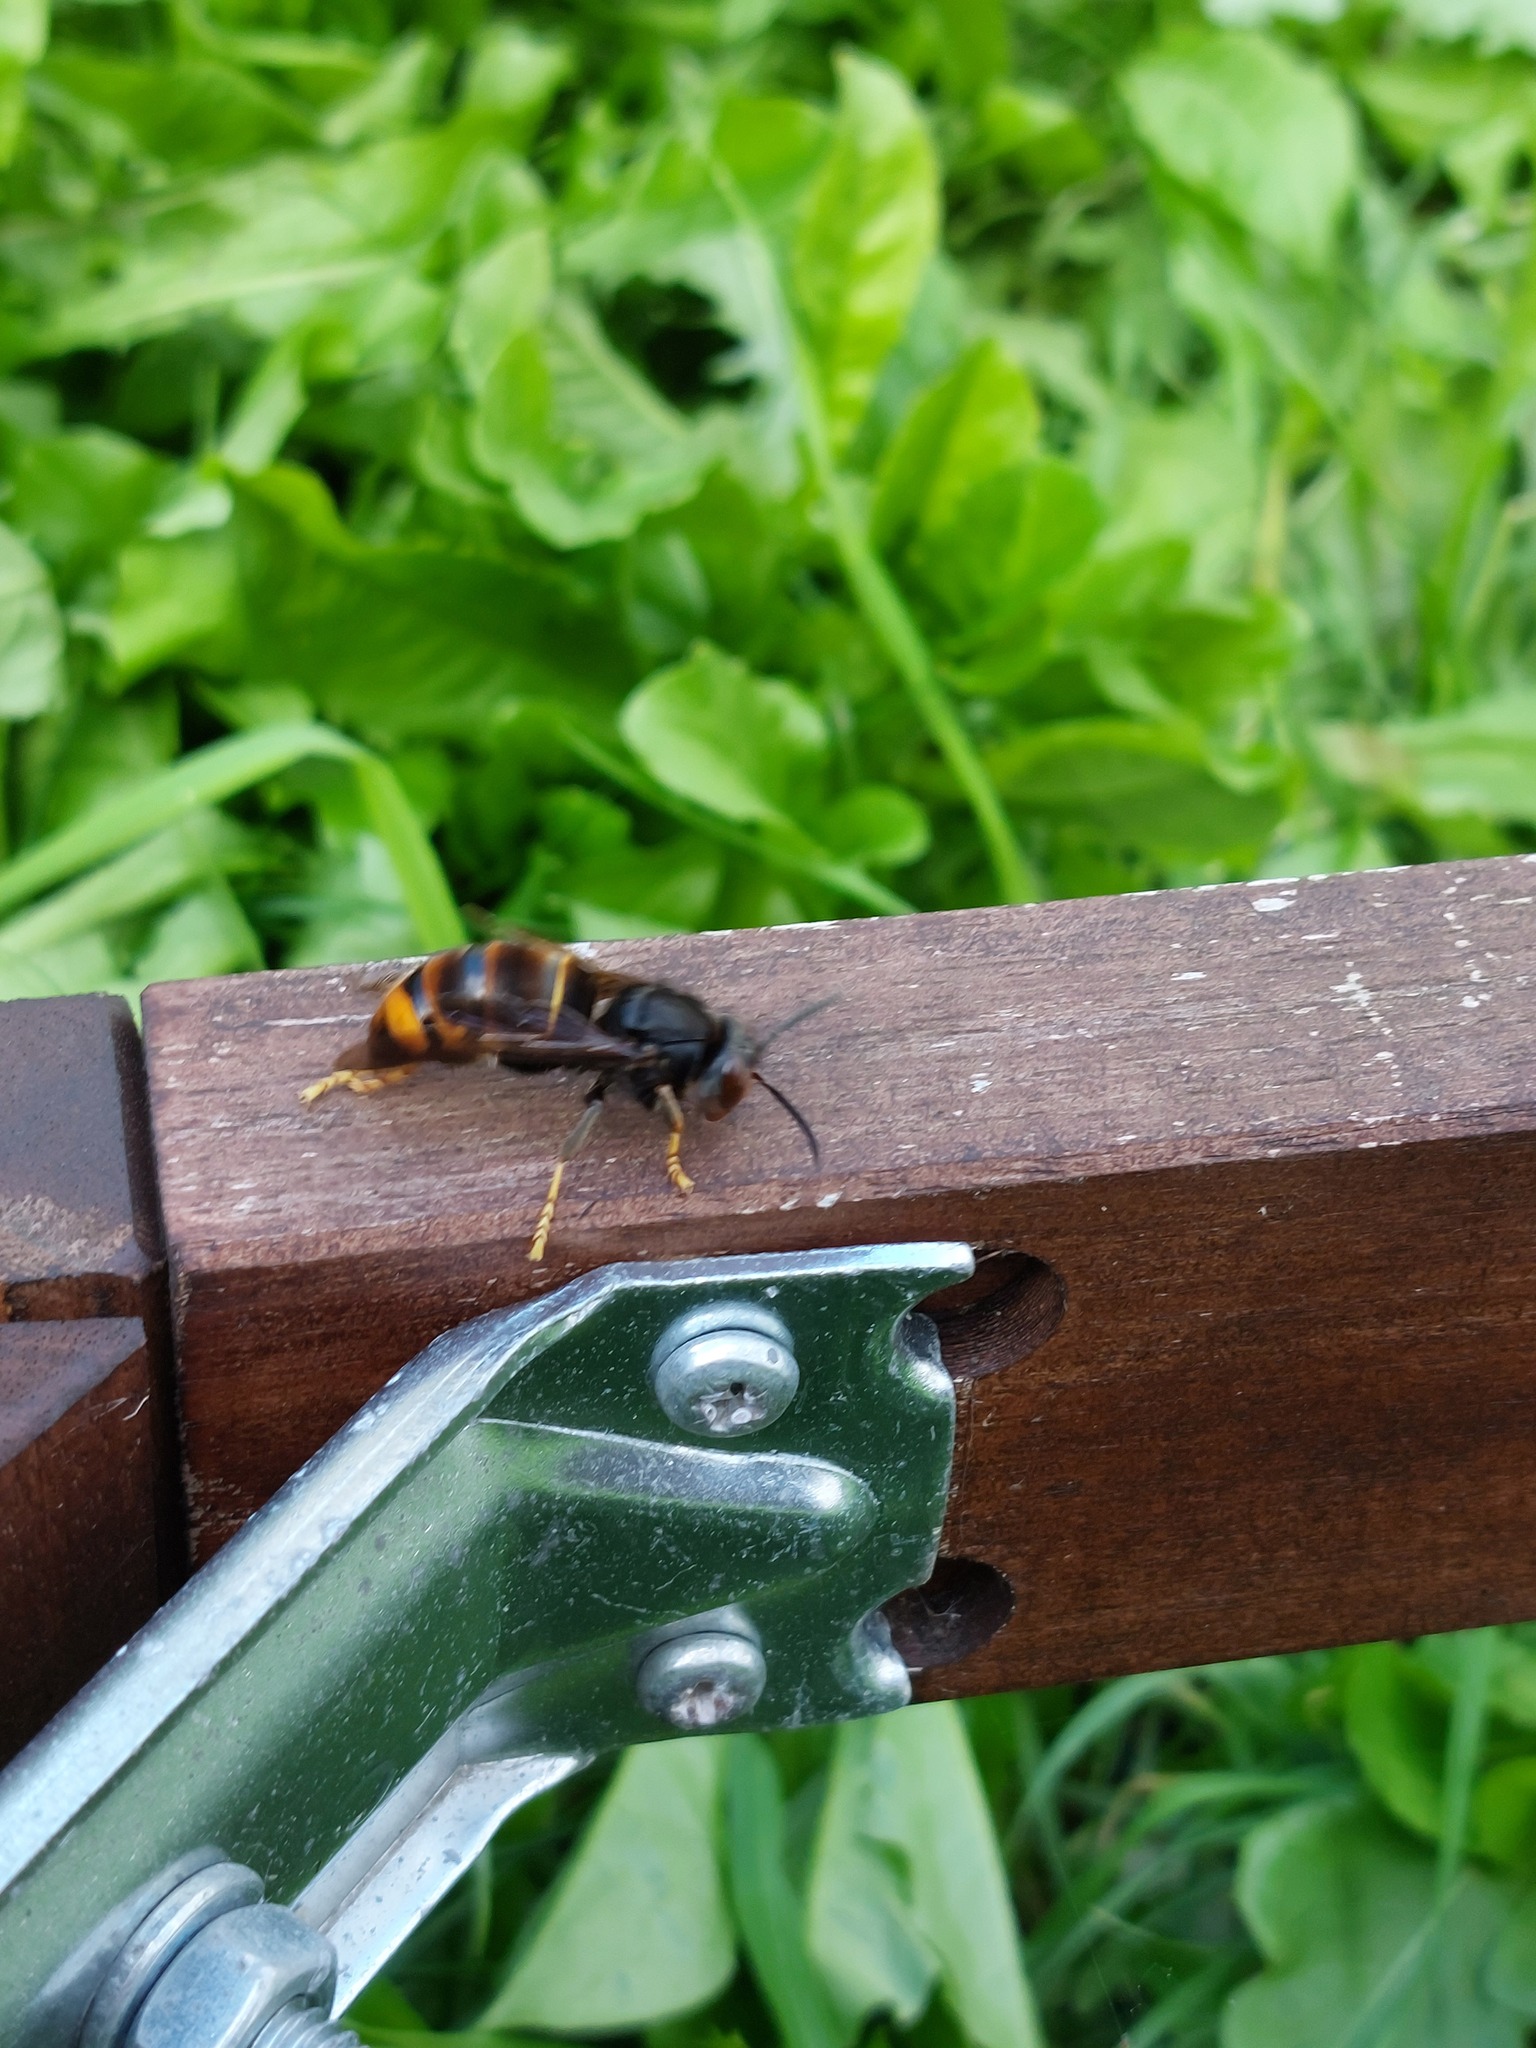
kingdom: Animalia
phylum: Arthropoda
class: Insecta
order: Hymenoptera
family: Vespidae
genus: Vespa
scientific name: Vespa velutina
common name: Asian hornet
